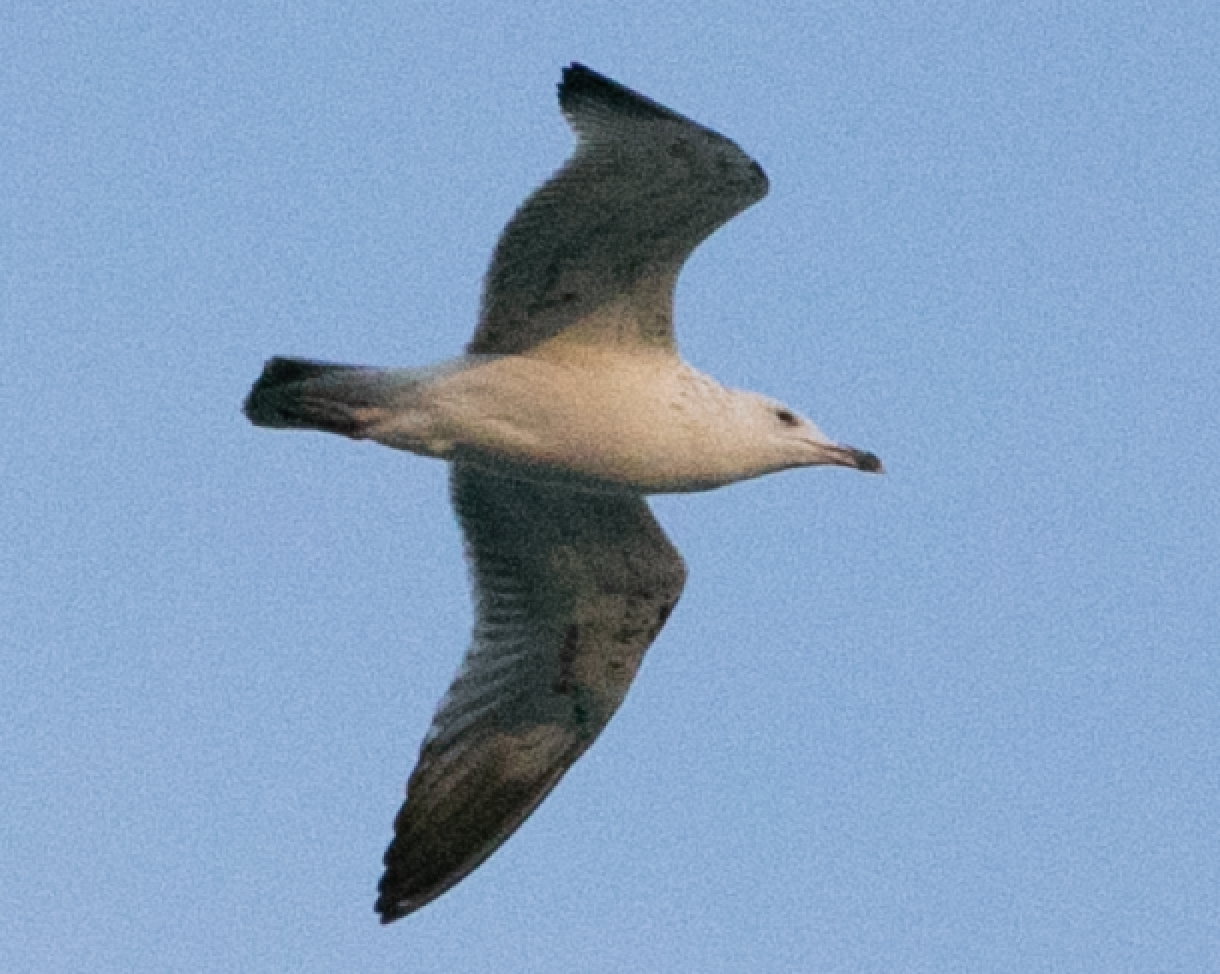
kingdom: Animalia
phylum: Chordata
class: Aves
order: Charadriiformes
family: Laridae
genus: Larus
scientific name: Larus cachinnans
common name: Caspian gull
